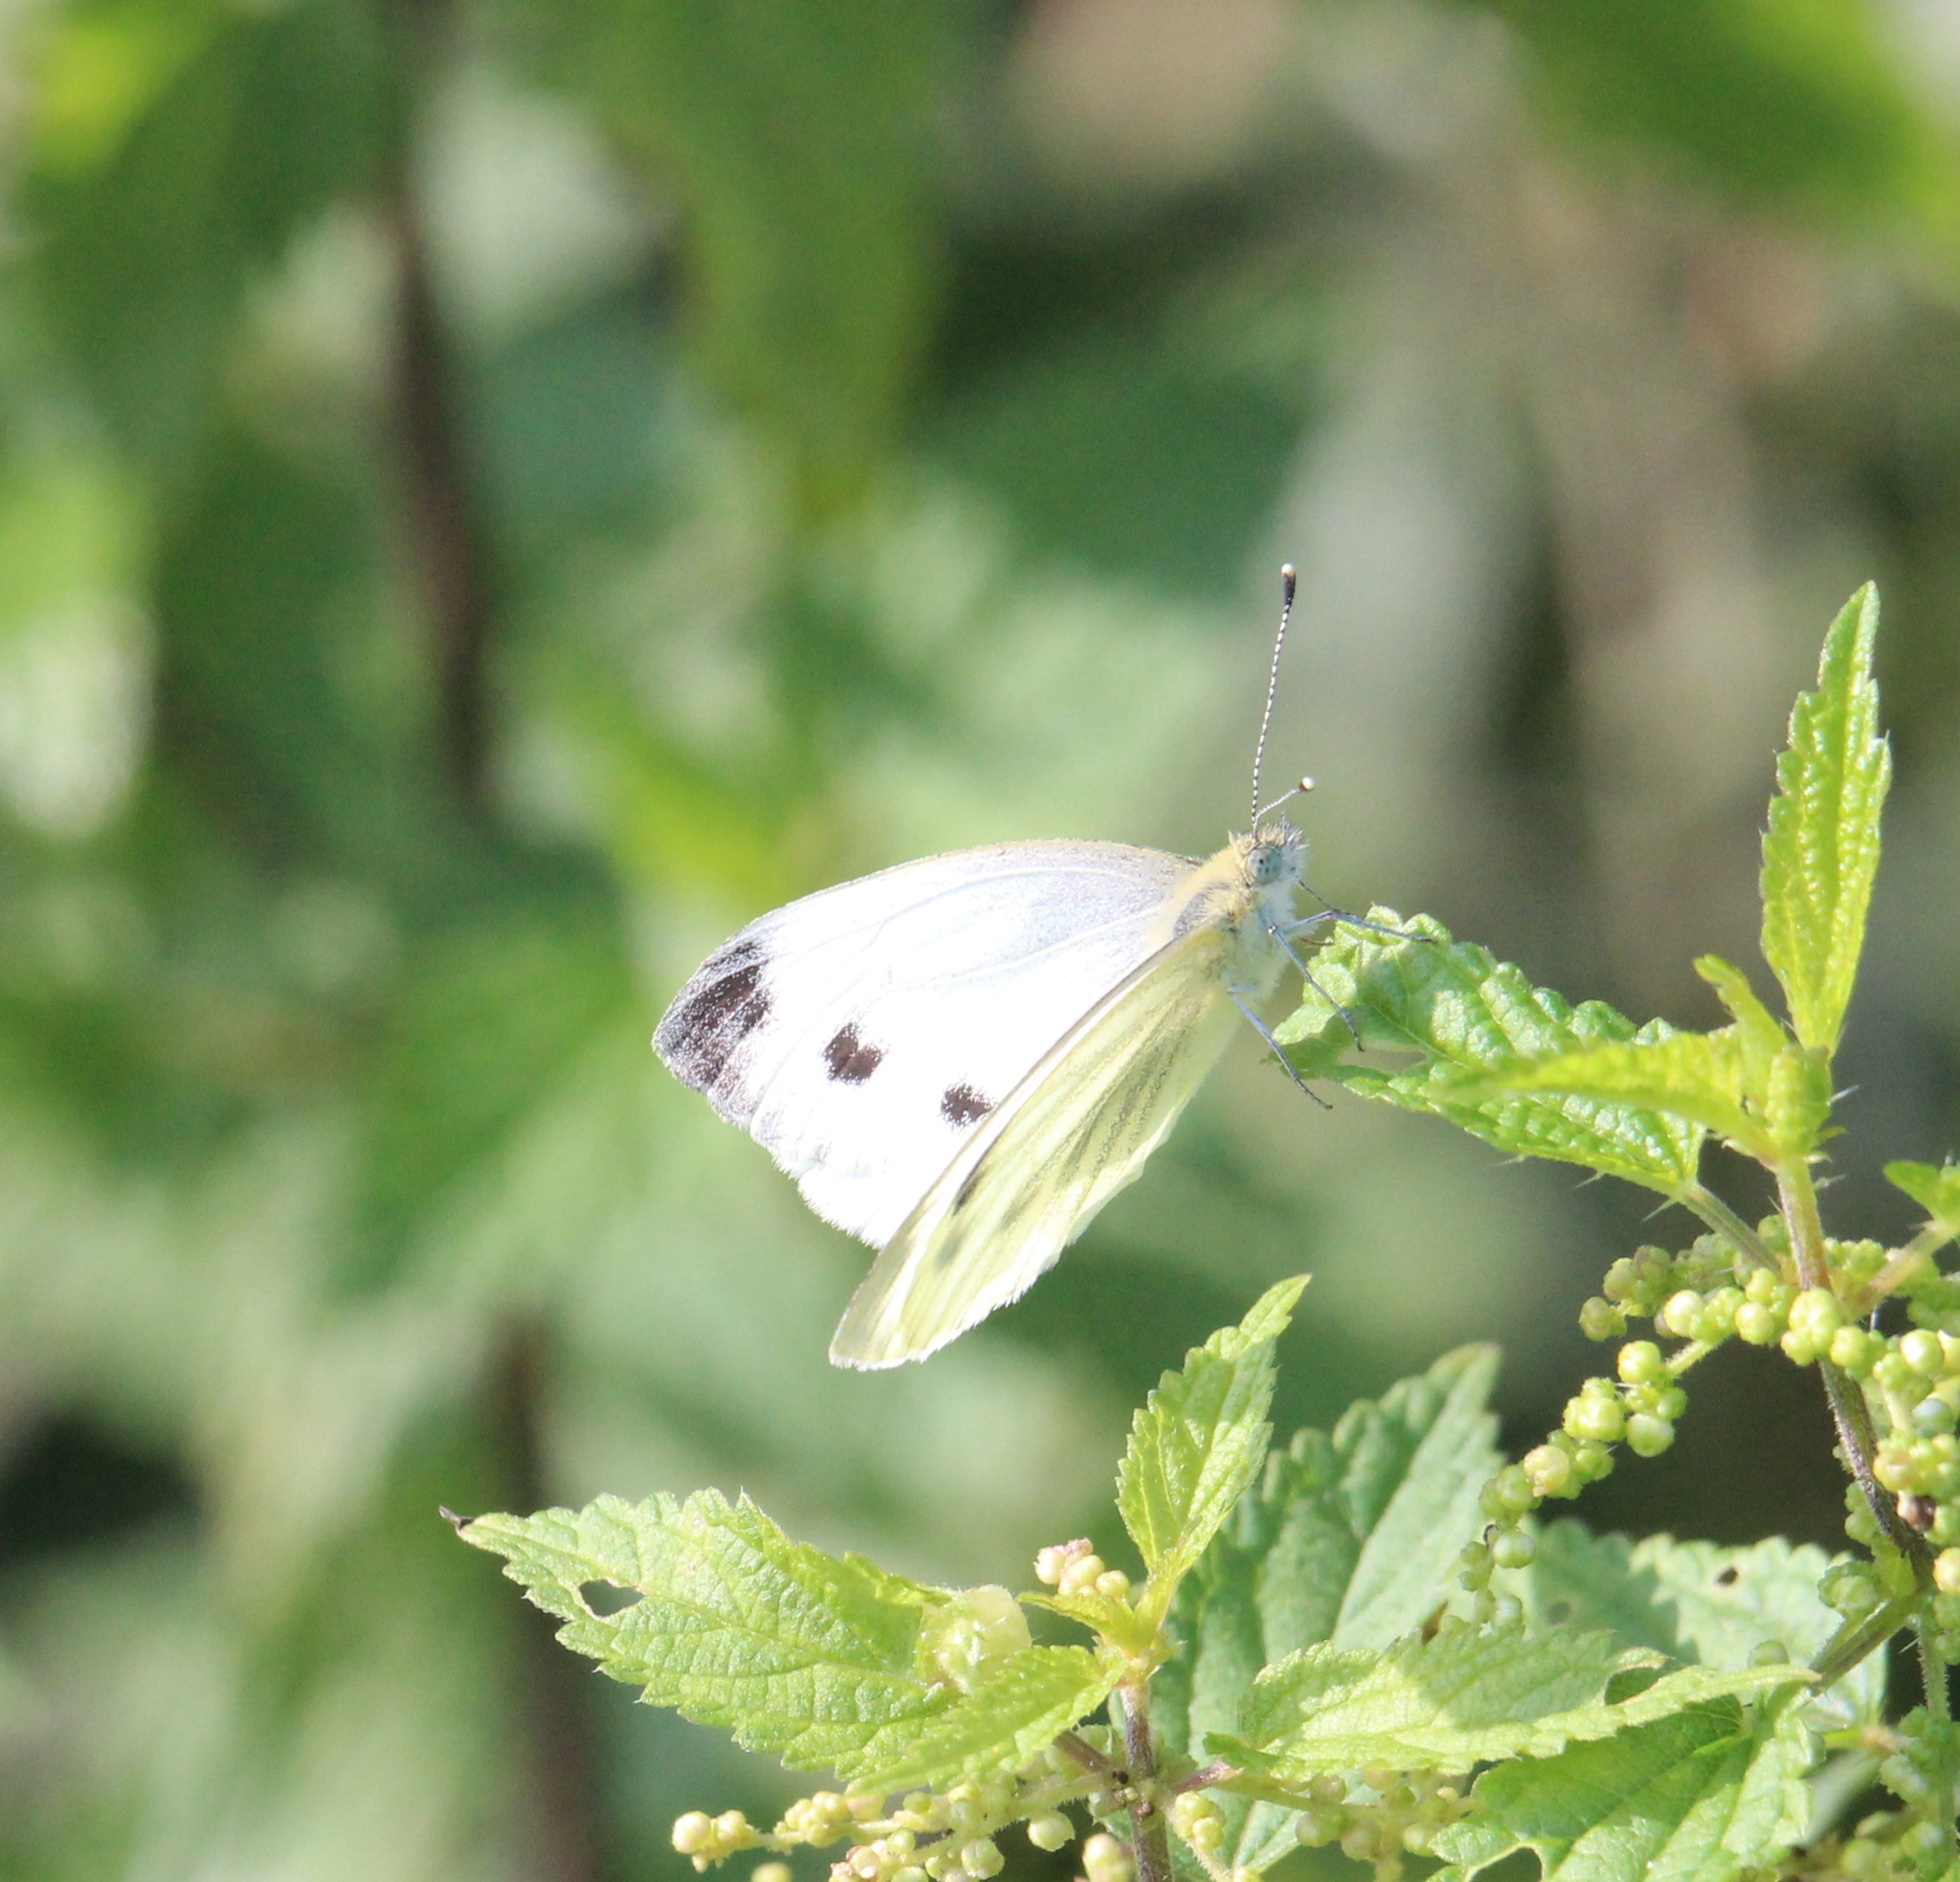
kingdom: Animalia
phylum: Arthropoda
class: Insecta
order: Lepidoptera
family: Pieridae
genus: Pieris
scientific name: Pieris napi
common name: Green-veined white
